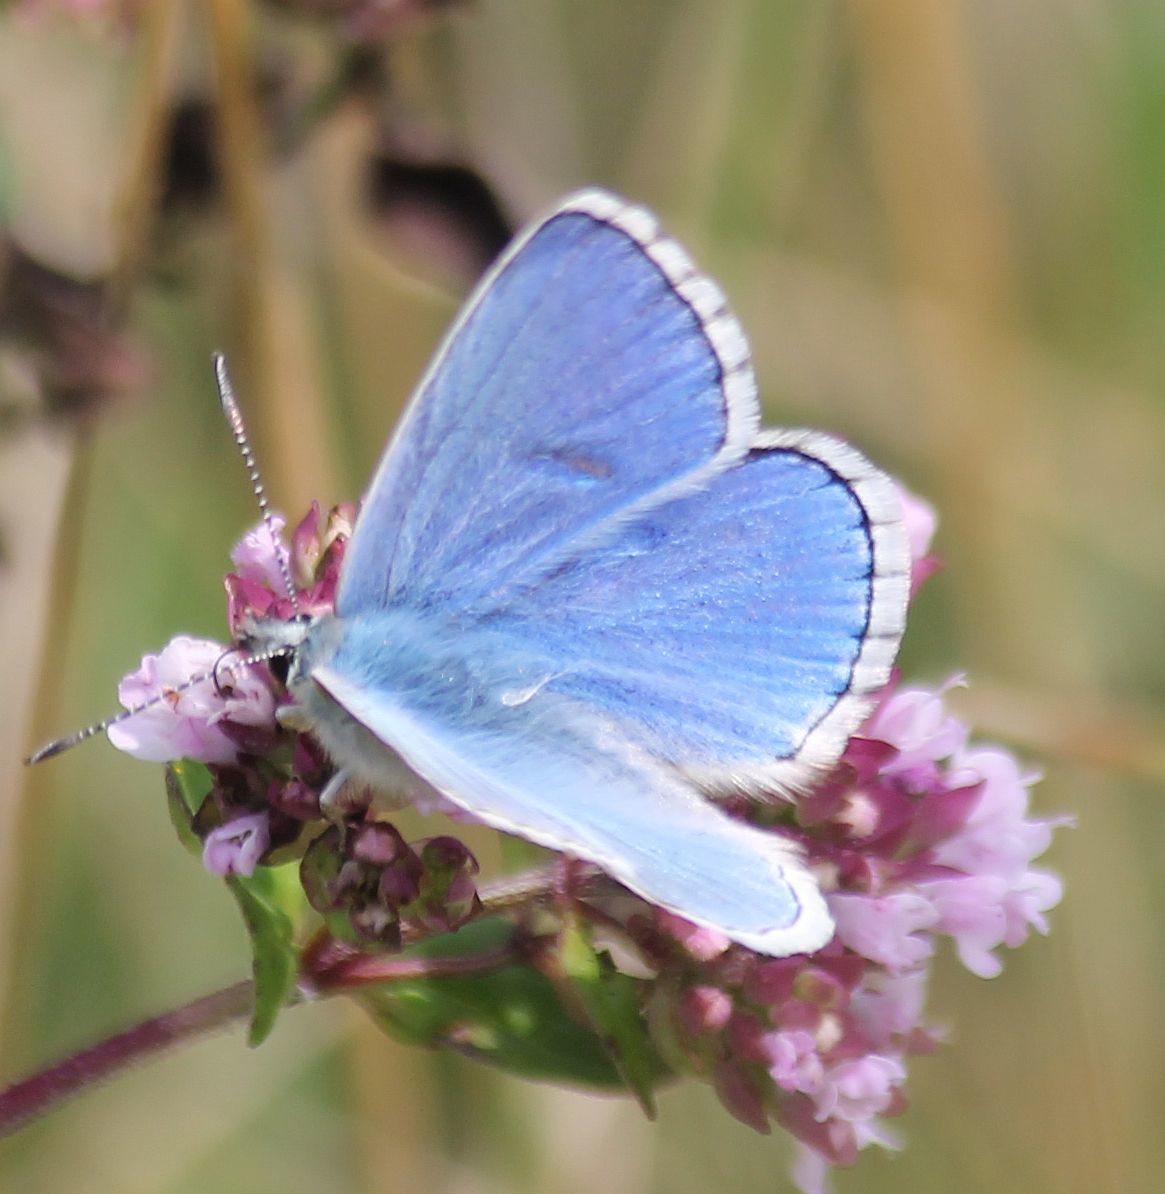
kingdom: Animalia
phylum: Arthropoda
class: Insecta
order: Lepidoptera
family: Lycaenidae
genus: Lysandra
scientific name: Lysandra bellargus
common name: Adonis blue
